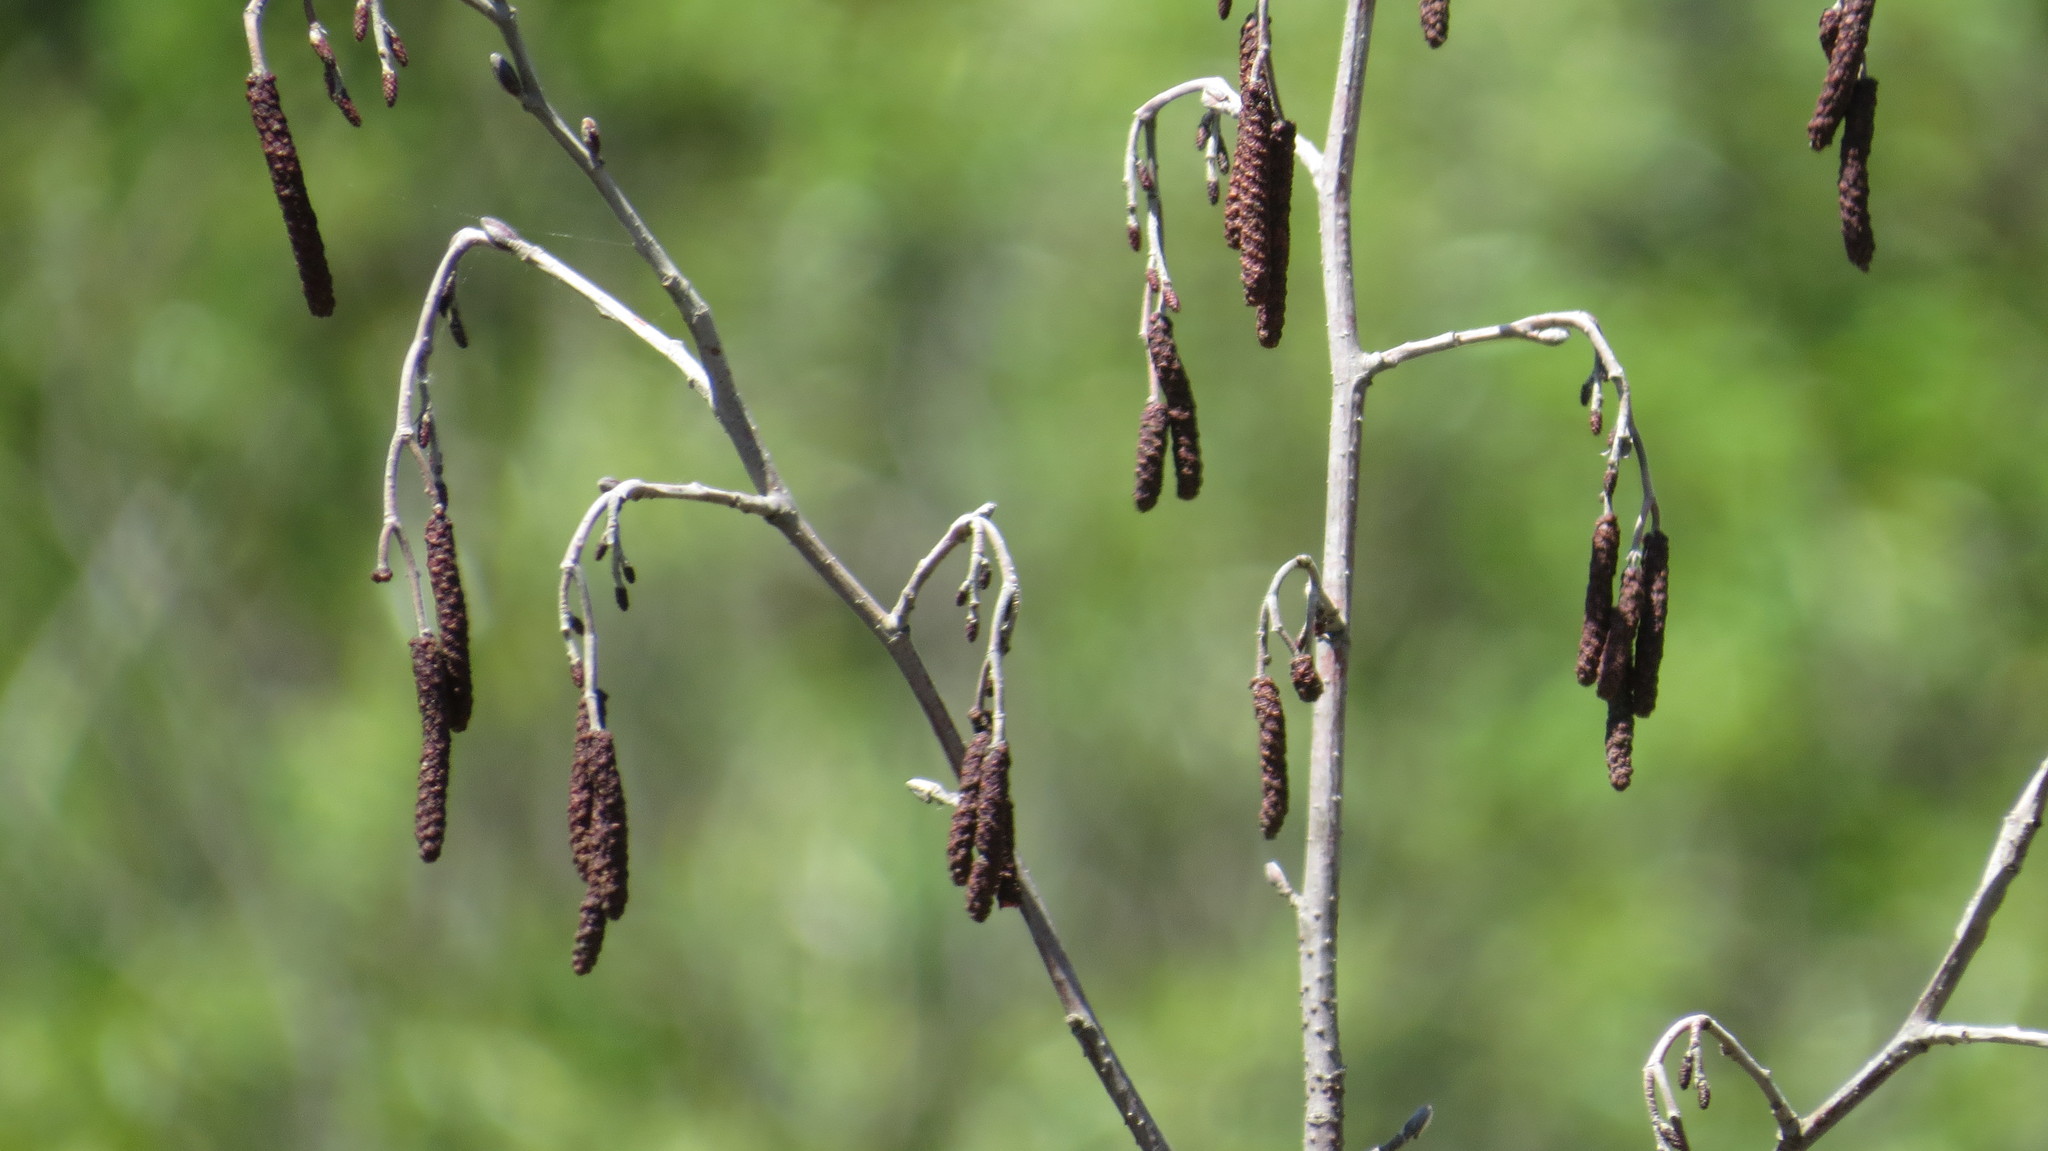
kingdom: Plantae
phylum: Tracheophyta
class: Magnoliopsida
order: Fagales
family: Betulaceae
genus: Alnus
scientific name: Alnus incana
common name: Grey alder
